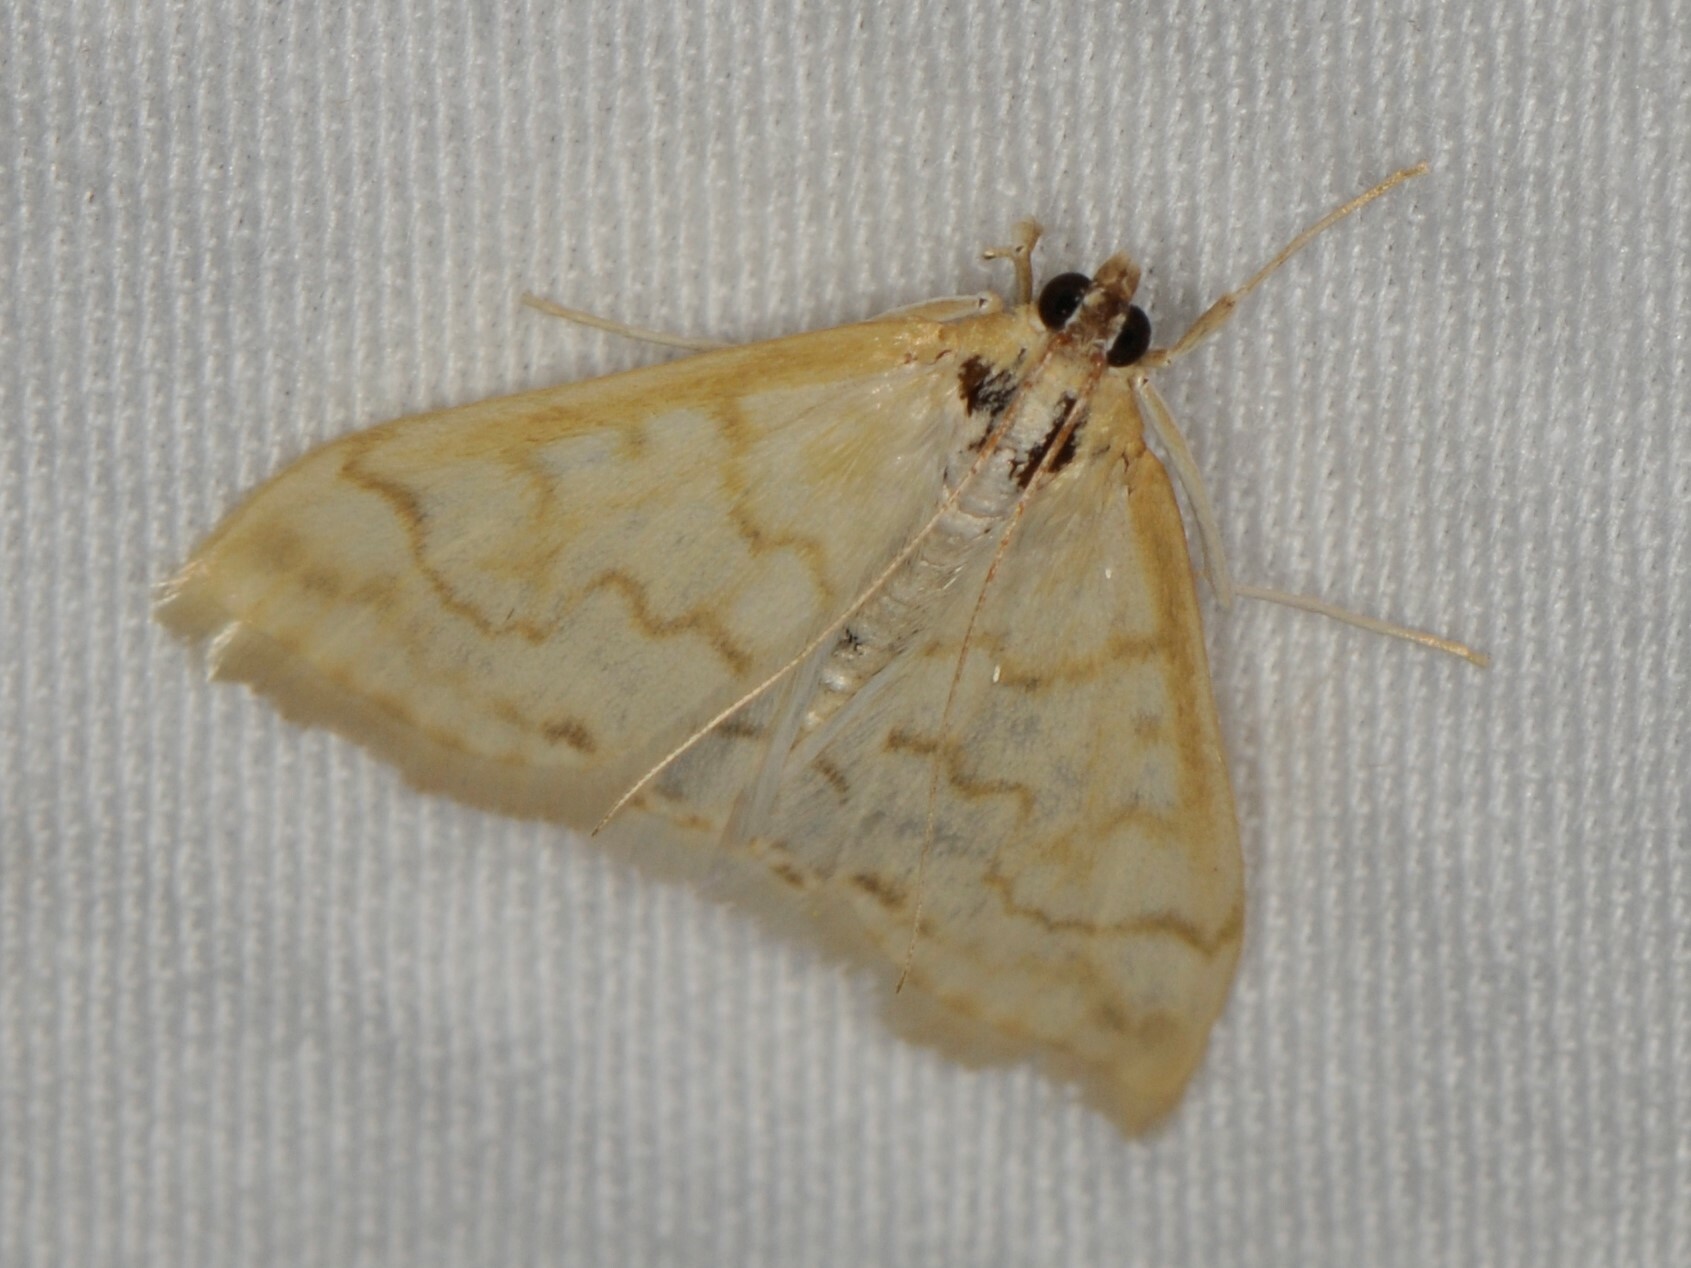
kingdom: Animalia
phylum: Arthropoda
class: Insecta
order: Lepidoptera
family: Crambidae
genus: Hahncappsia
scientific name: Hahncappsia pergilvalis
